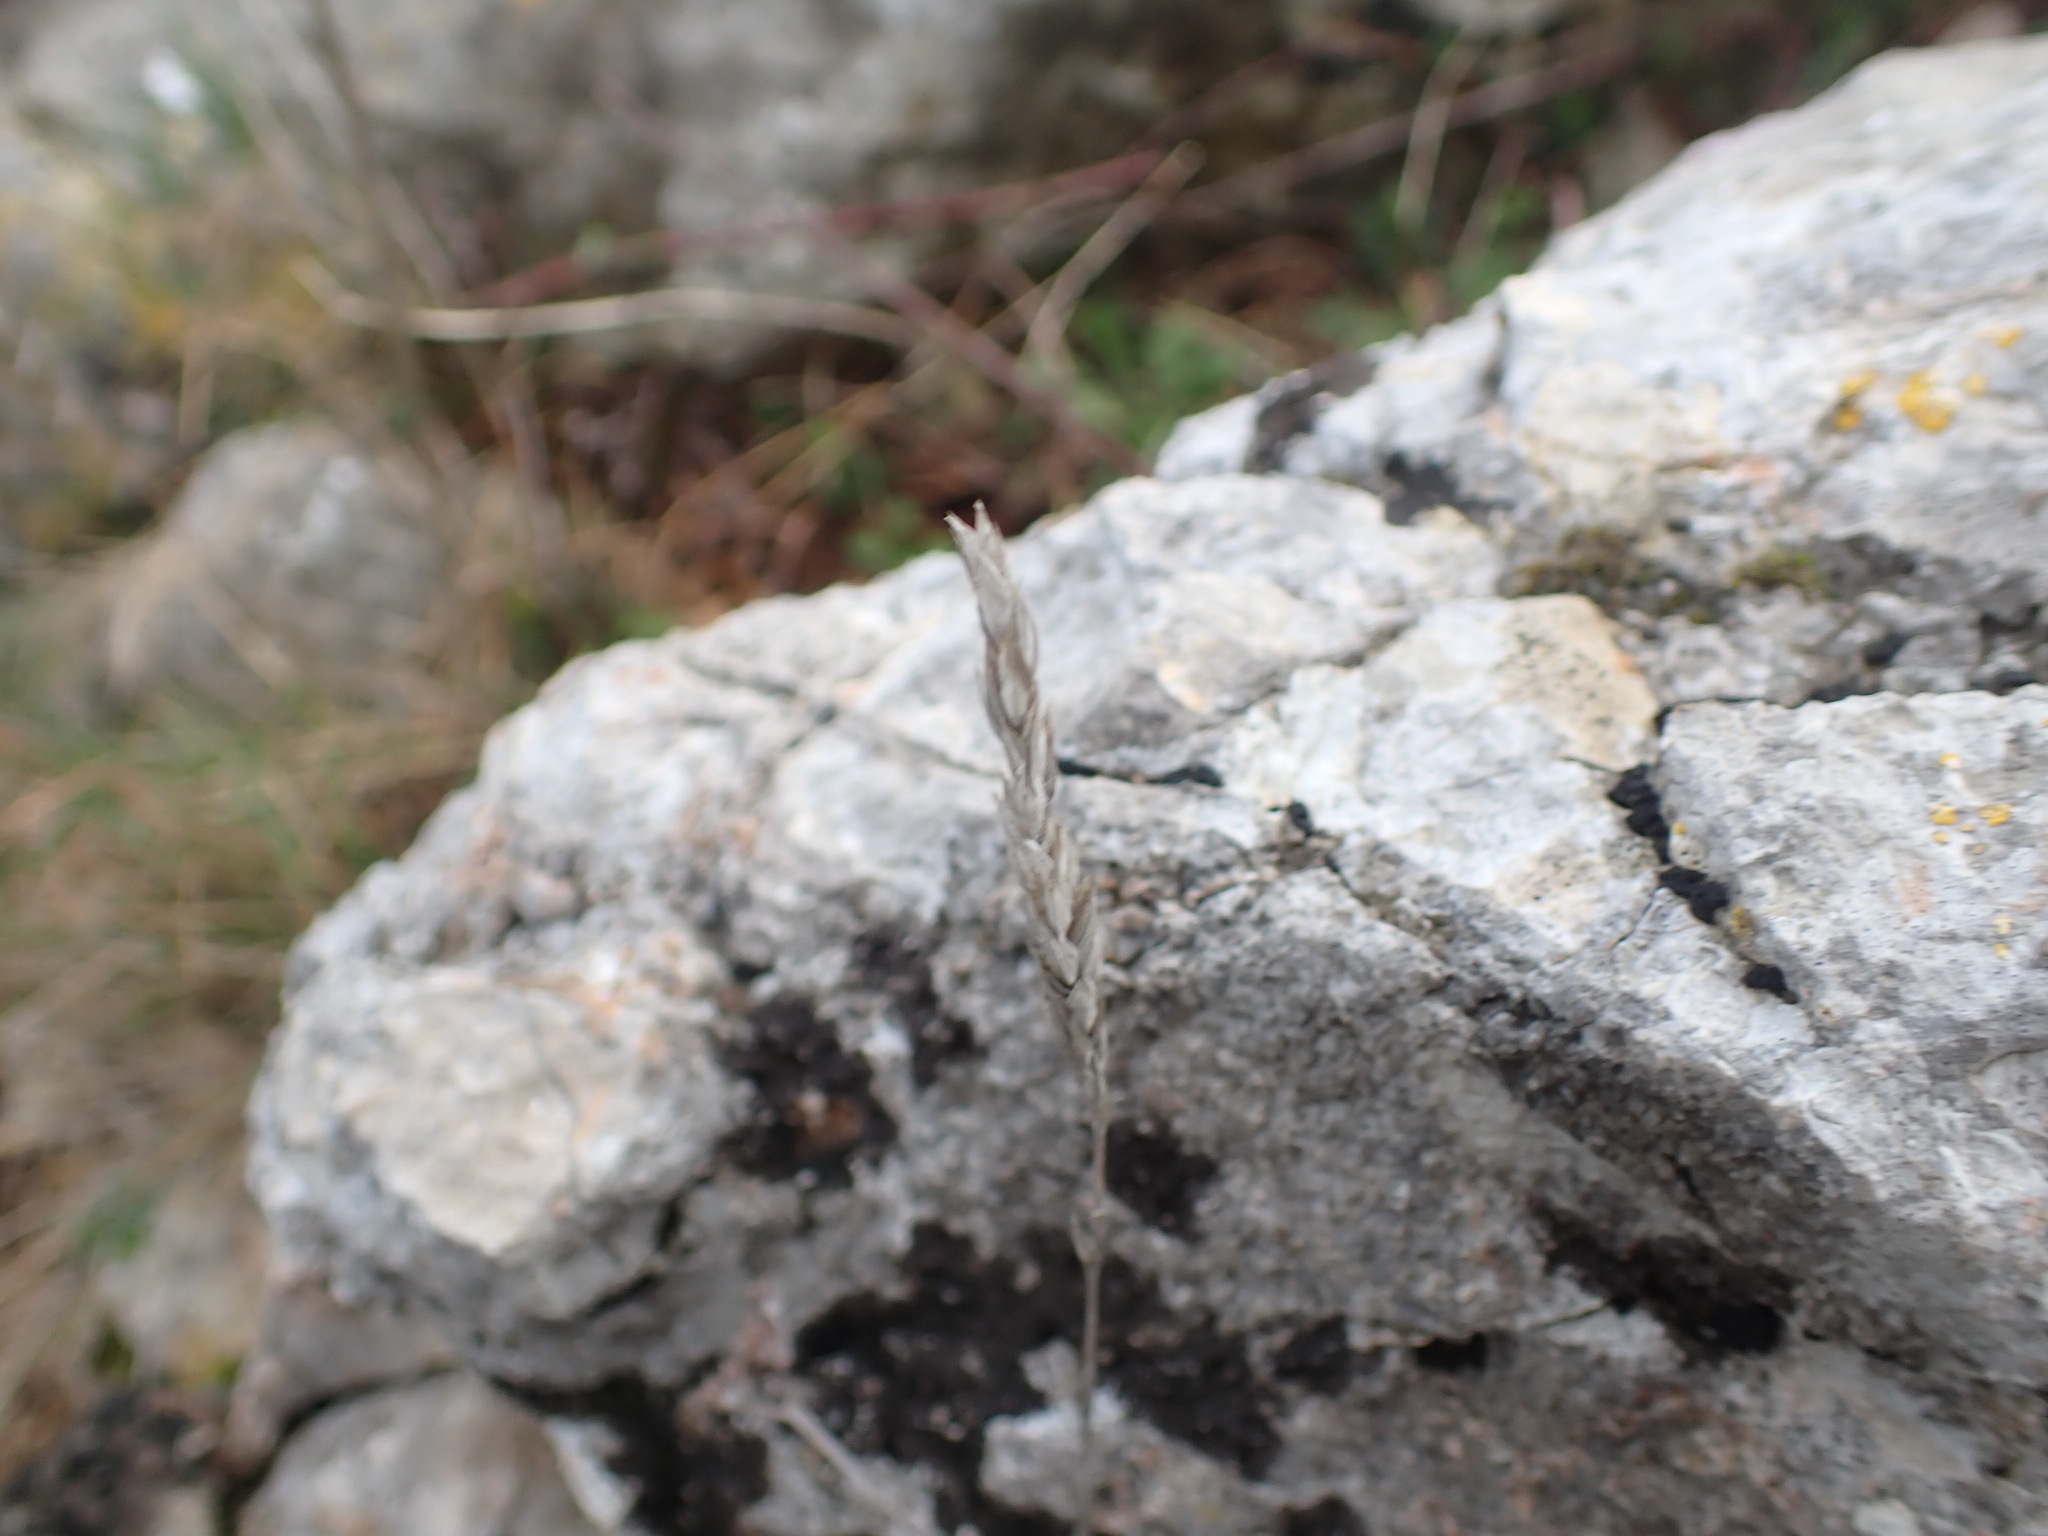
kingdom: Plantae
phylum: Tracheophyta
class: Magnoliopsida
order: Gentianales
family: Rubiaceae
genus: Crucianella
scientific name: Crucianella angustifolia
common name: Narrowleaf crucianella
